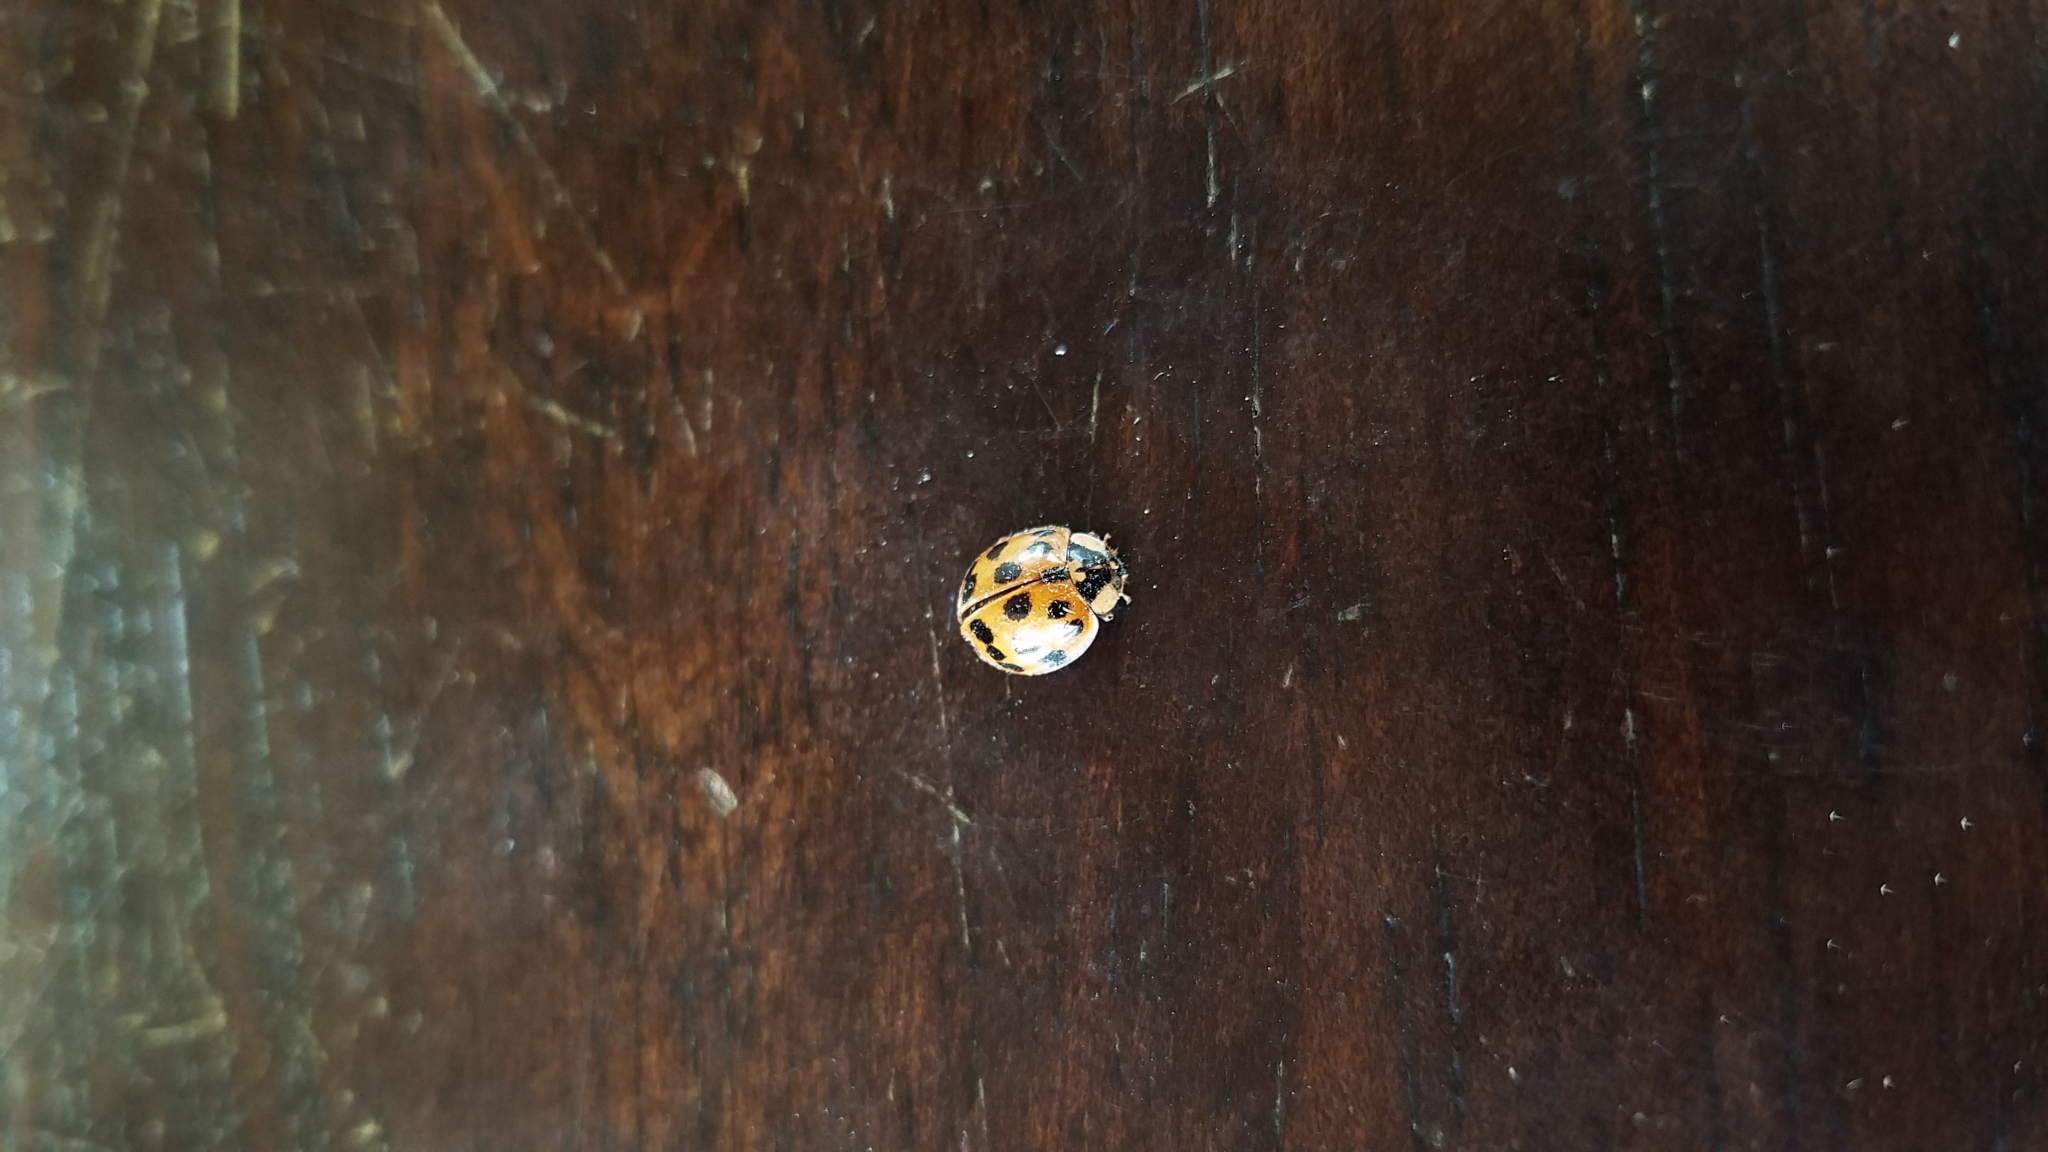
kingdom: Animalia
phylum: Arthropoda
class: Insecta
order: Coleoptera
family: Coccinellidae
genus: Harmonia
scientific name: Harmonia axyridis
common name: Harlequin ladybird
